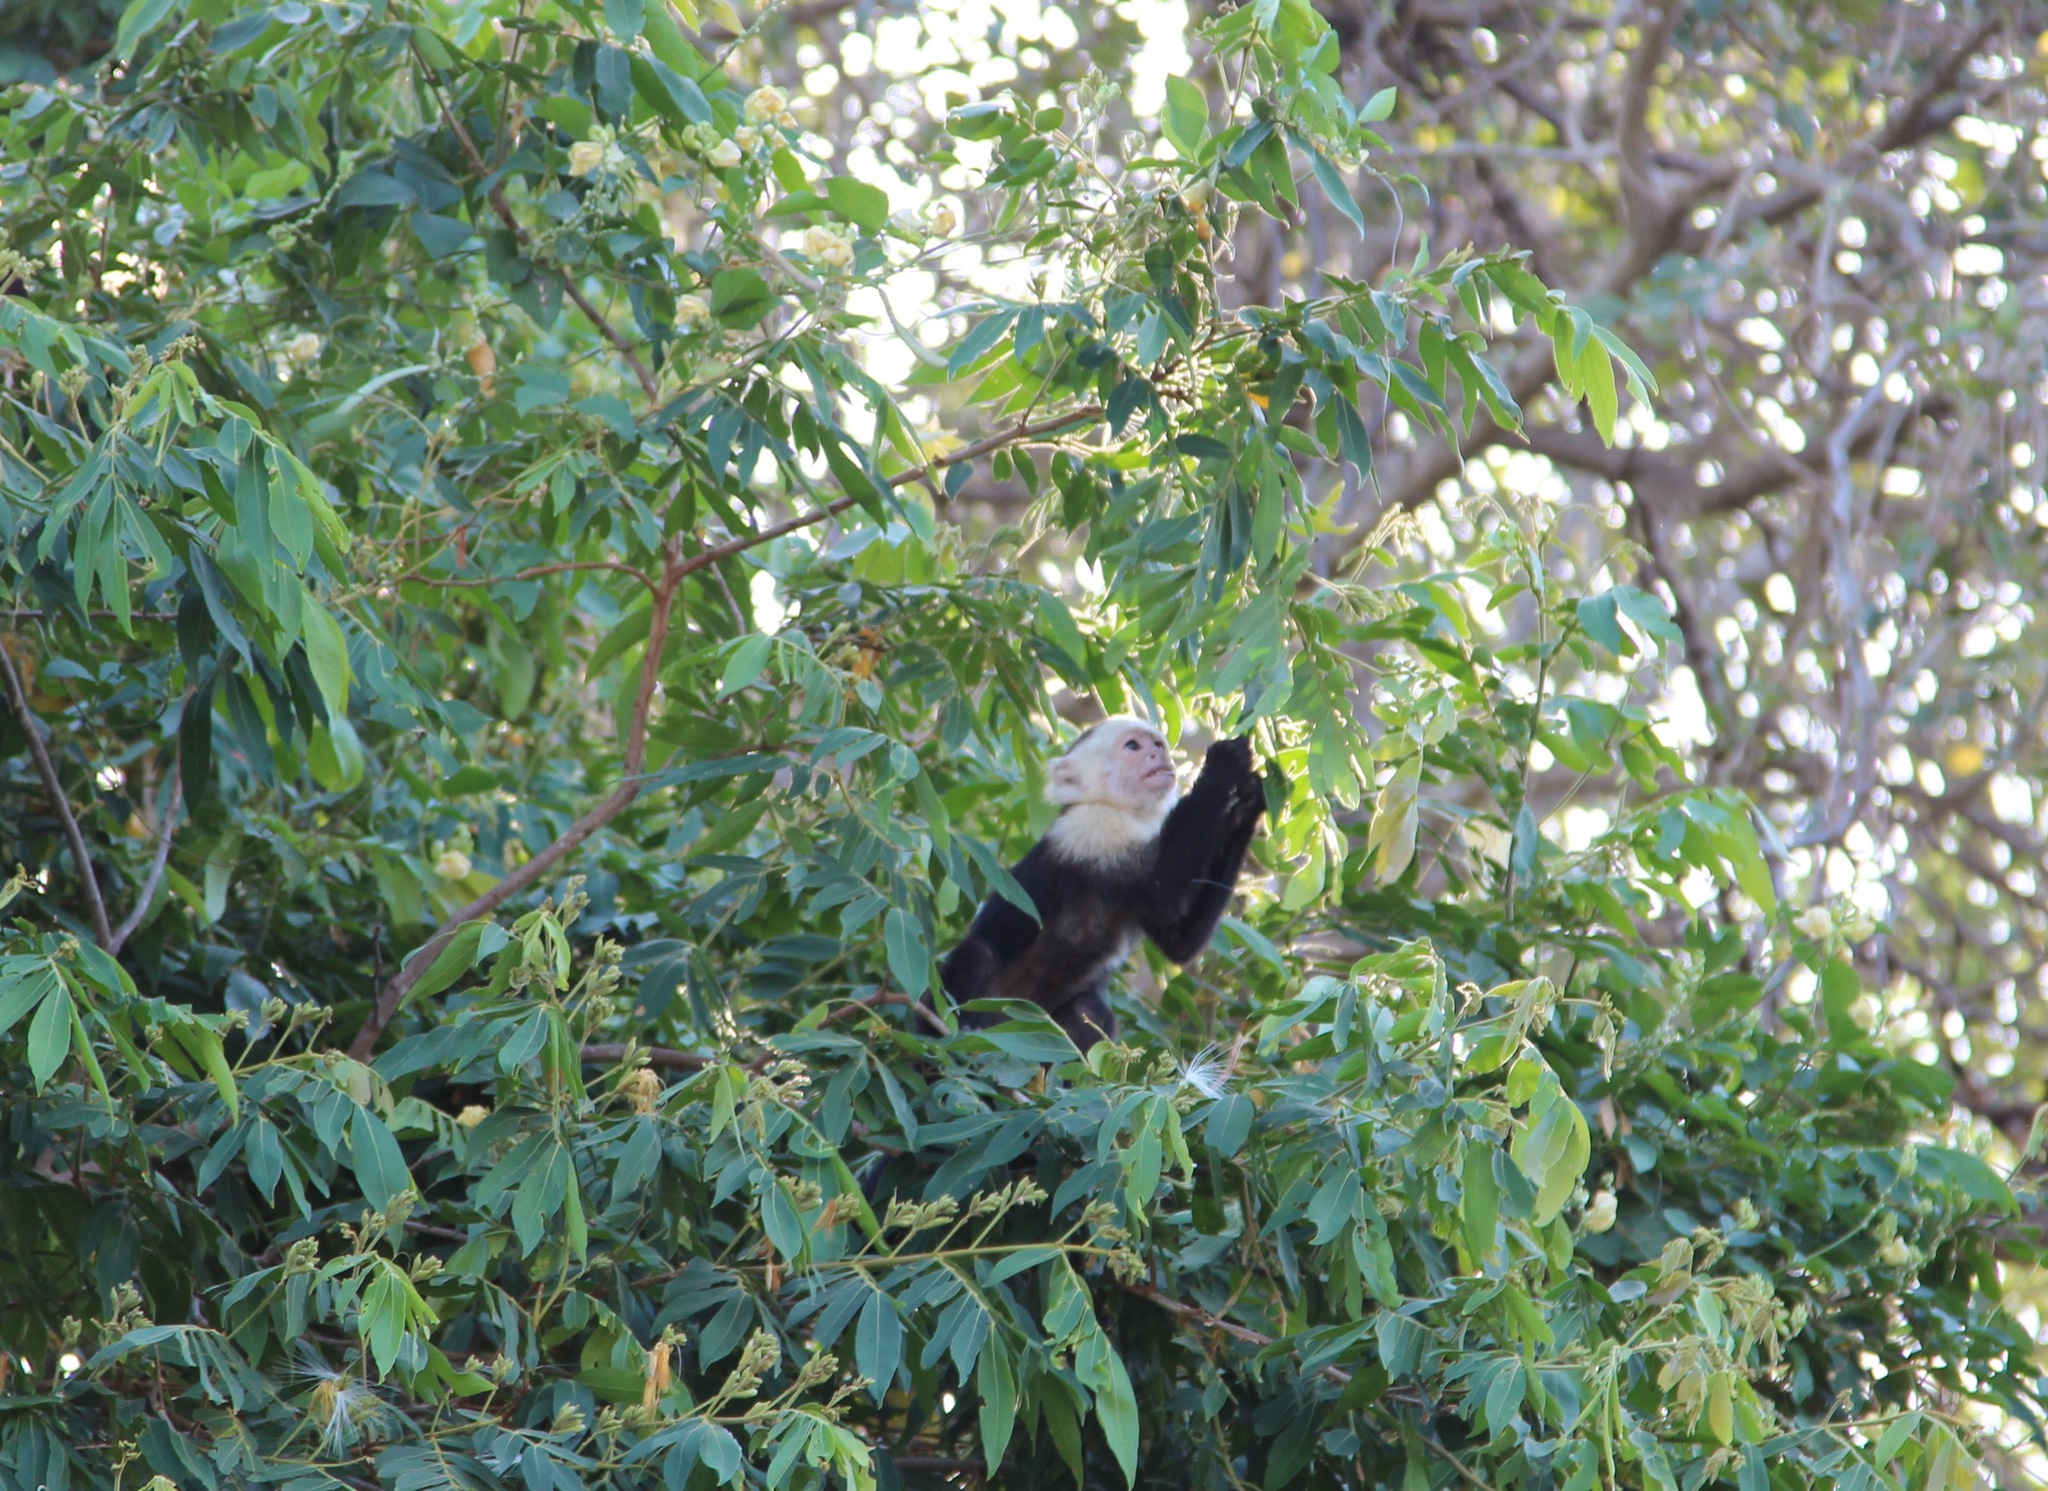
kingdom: Animalia
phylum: Chordata
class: Mammalia
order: Primates
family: Cebidae
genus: Cebus
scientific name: Cebus imitator
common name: Panamanian white-faced capuchin
